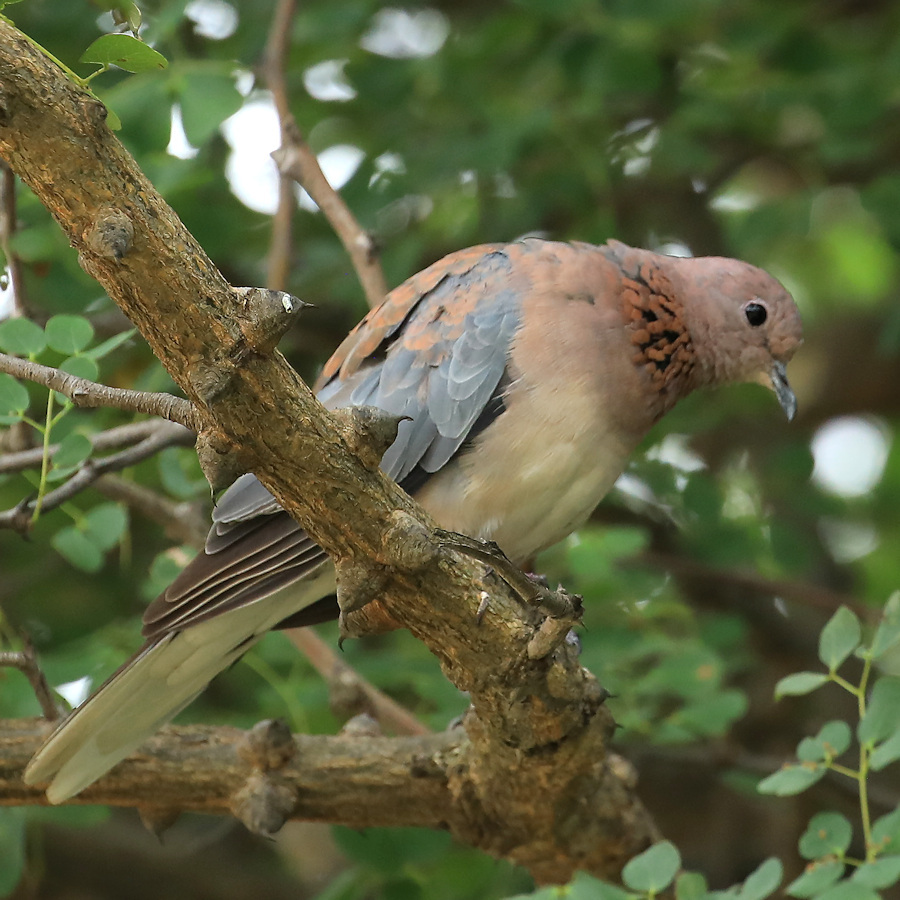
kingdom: Animalia
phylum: Chordata
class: Aves
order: Columbiformes
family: Columbidae
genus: Spilopelia
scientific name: Spilopelia senegalensis
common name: Laughing dove
